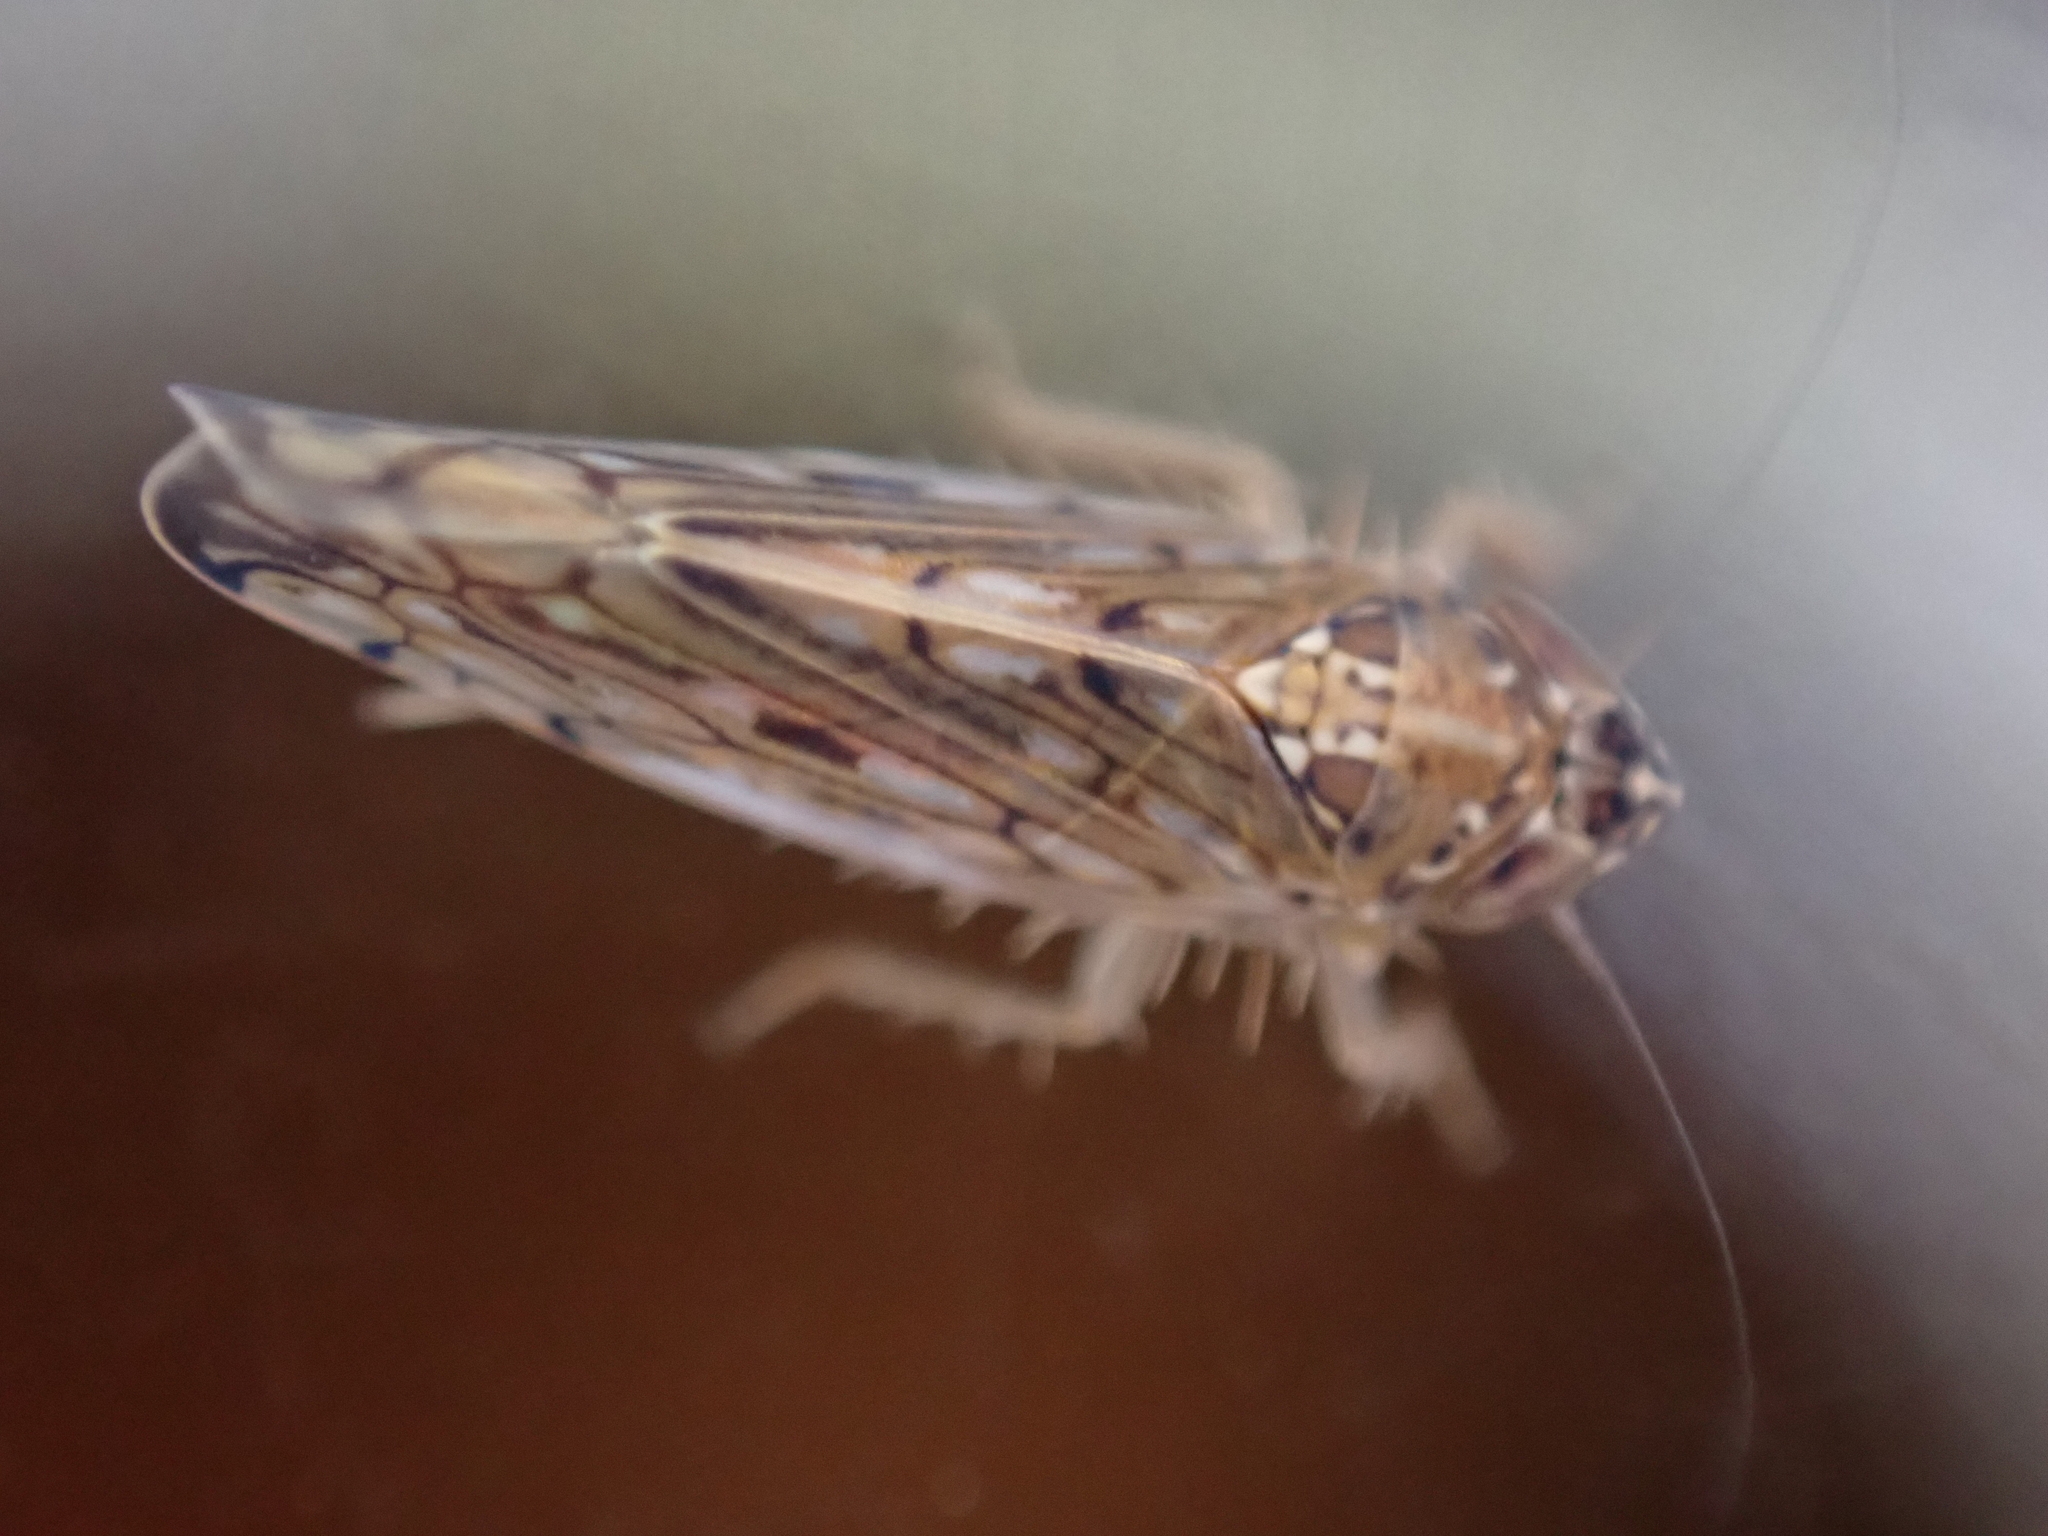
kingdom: Animalia
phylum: Arthropoda
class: Insecta
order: Hemiptera
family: Cicadellidae
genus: Osbornellus
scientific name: Osbornellus clarus
